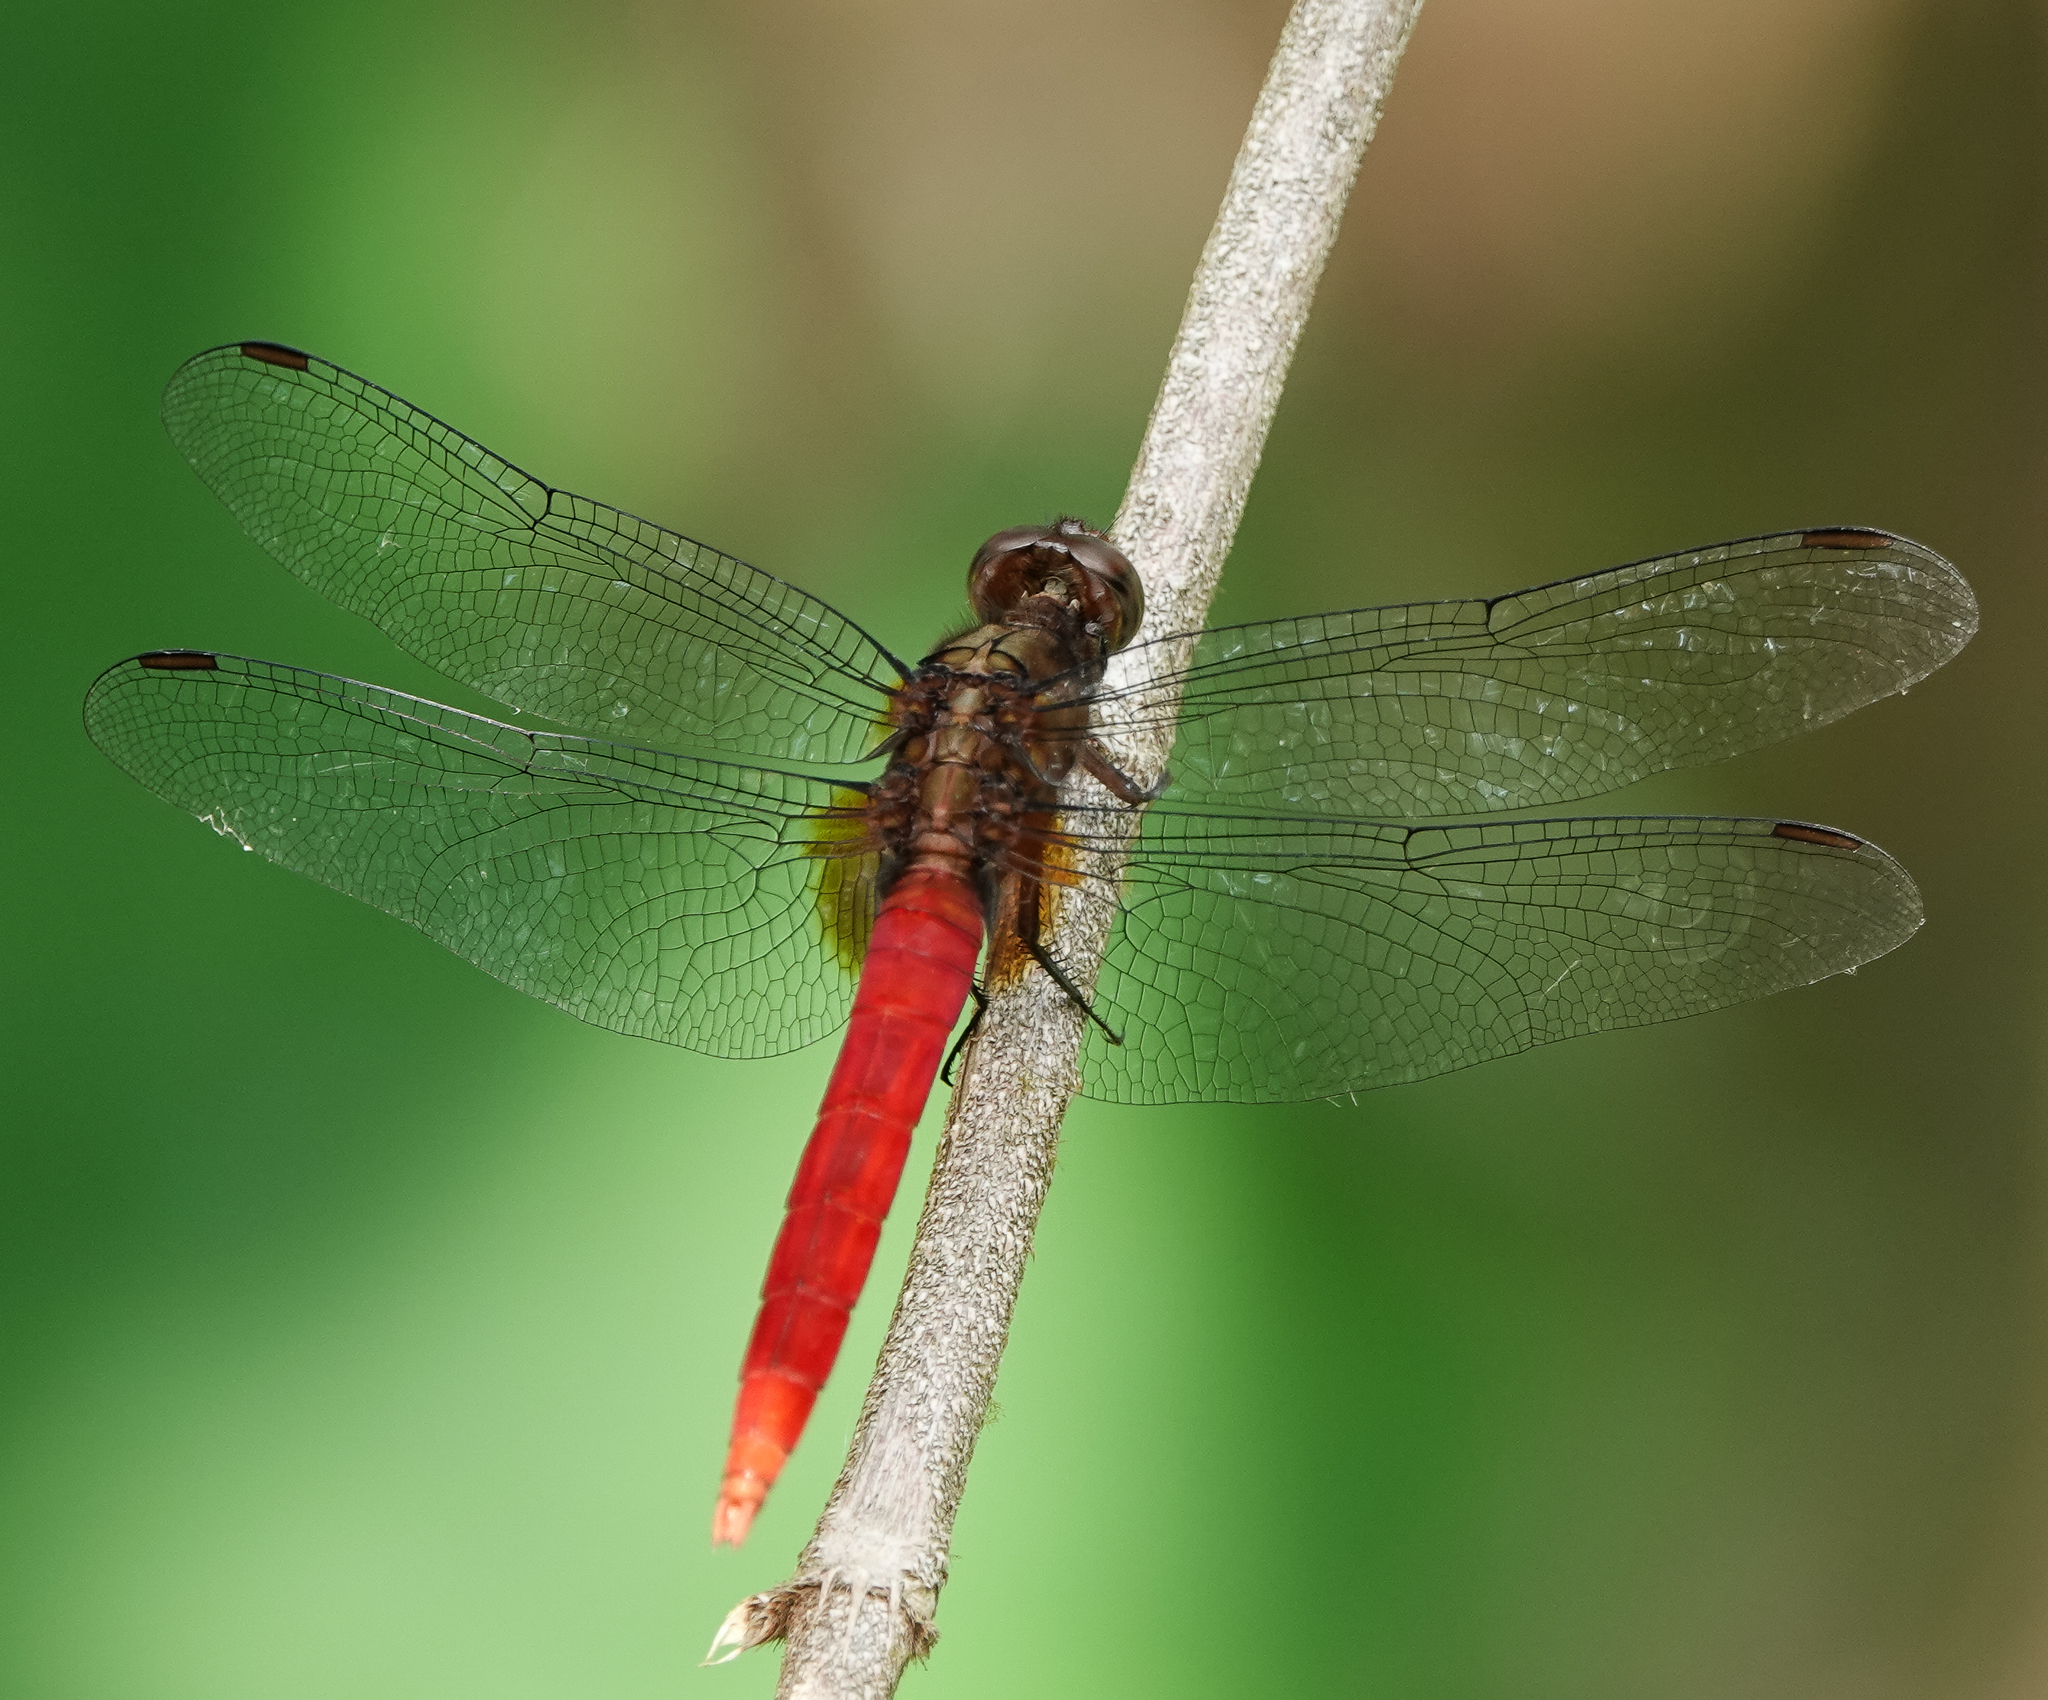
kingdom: Animalia
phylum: Arthropoda
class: Insecta
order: Odonata
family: Libellulidae
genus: Orthetrum
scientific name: Orthetrum chrysis
